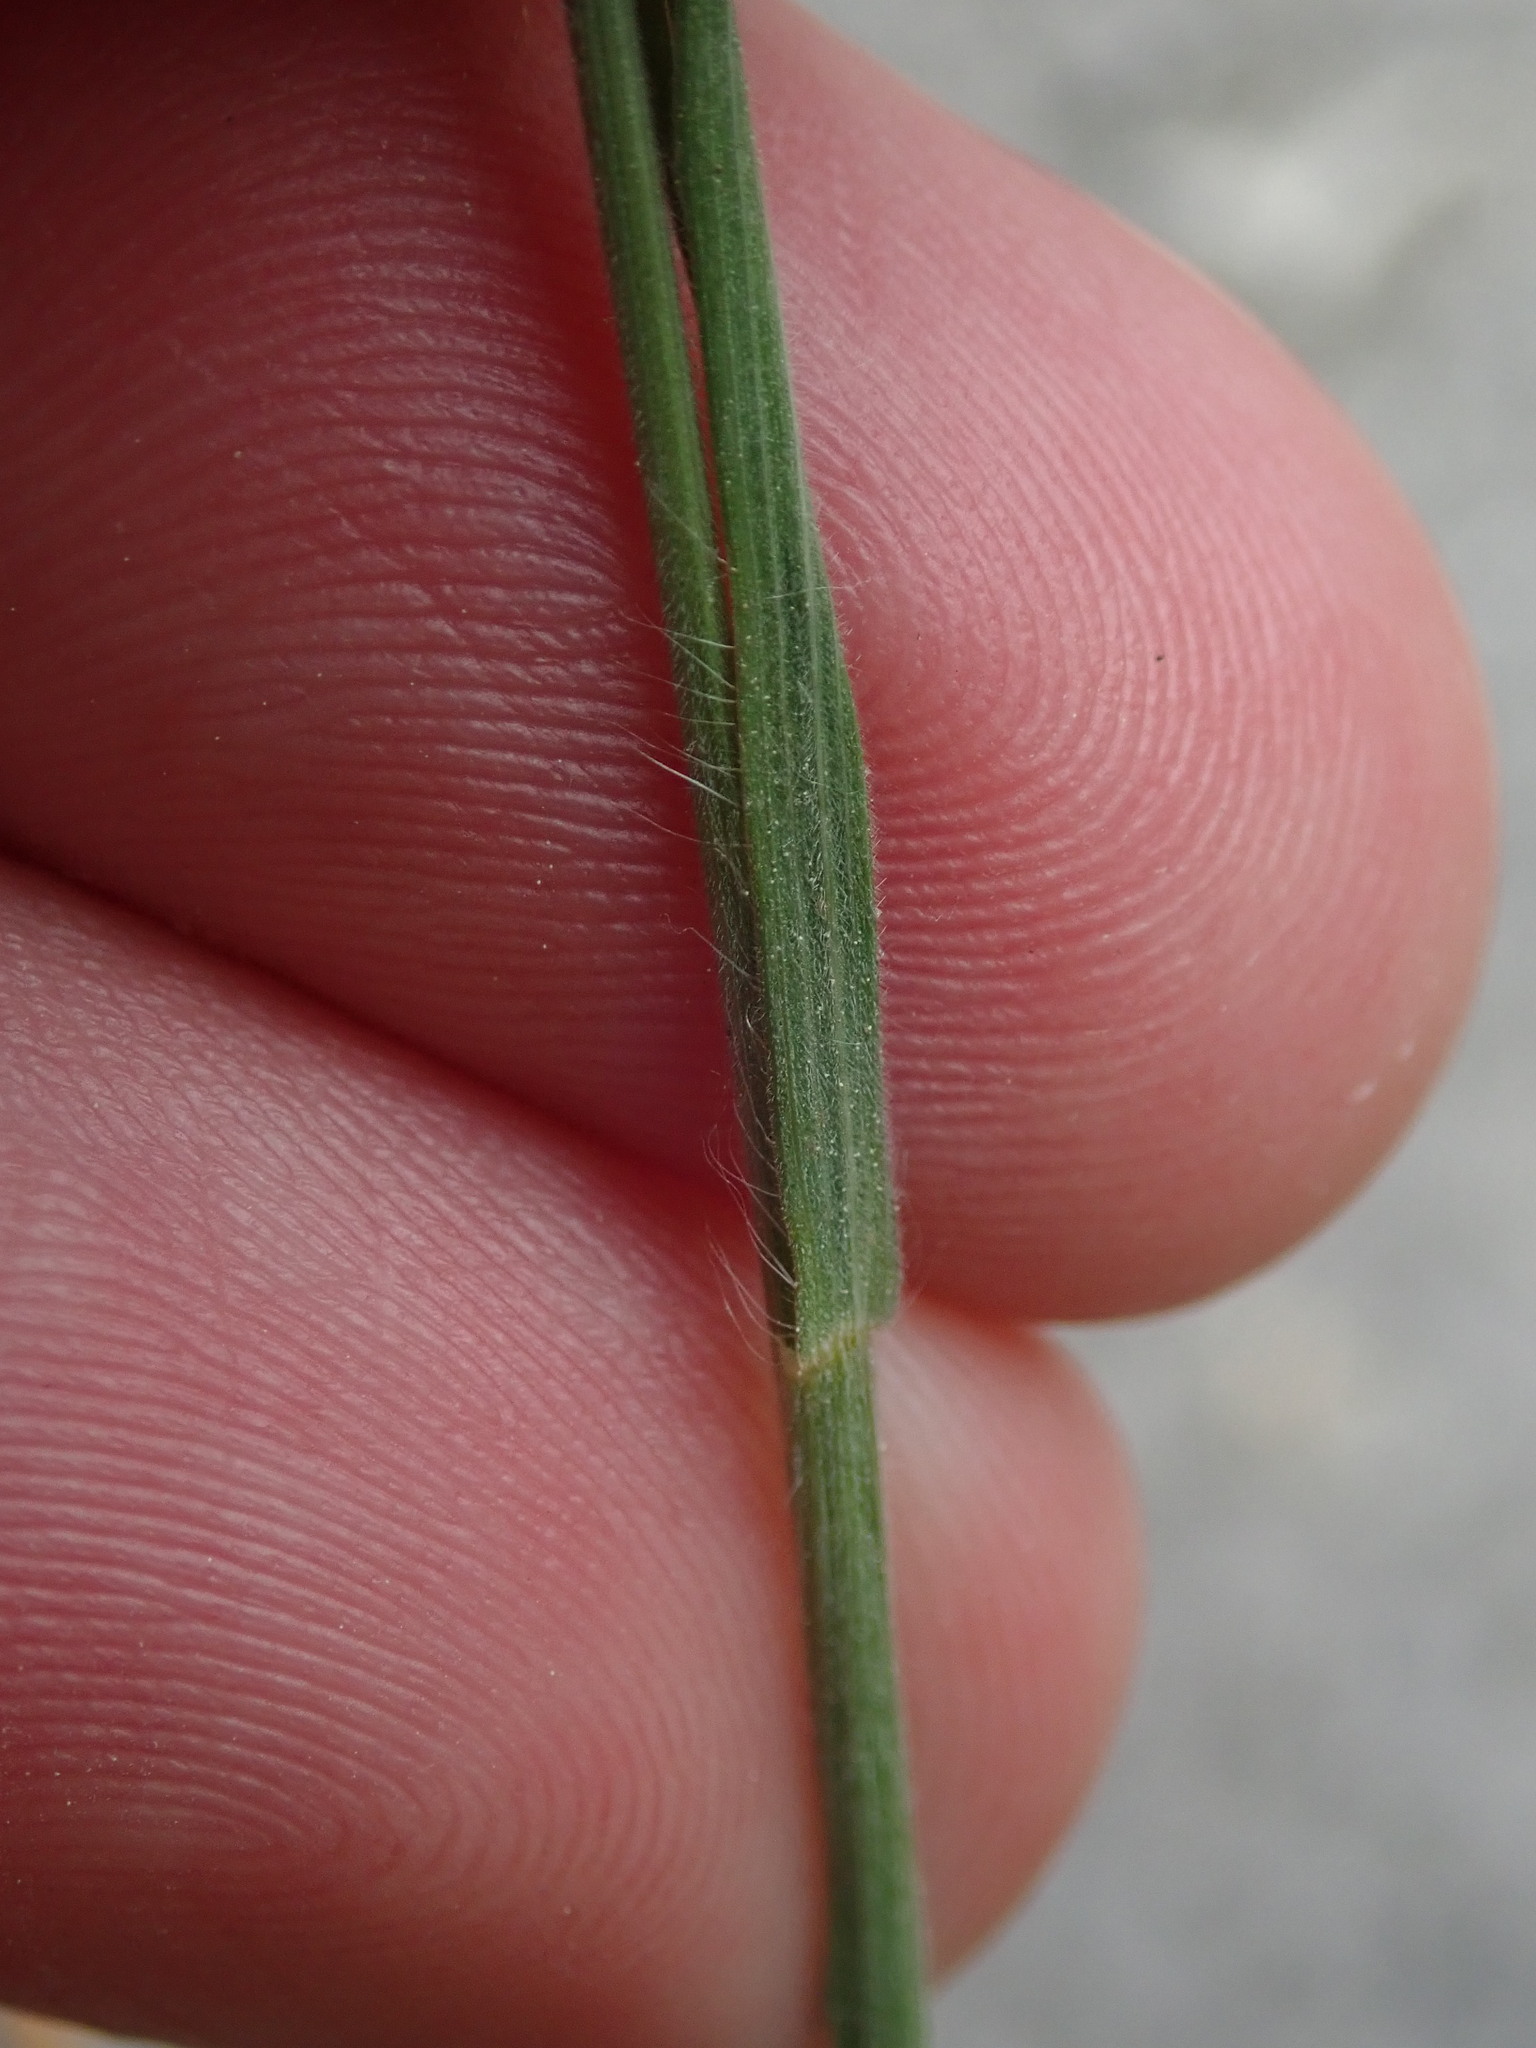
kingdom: Plantae
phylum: Tracheophyta
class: Liliopsida
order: Poales
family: Poaceae
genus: Bromus
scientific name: Bromus hordeaceus
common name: Soft brome
